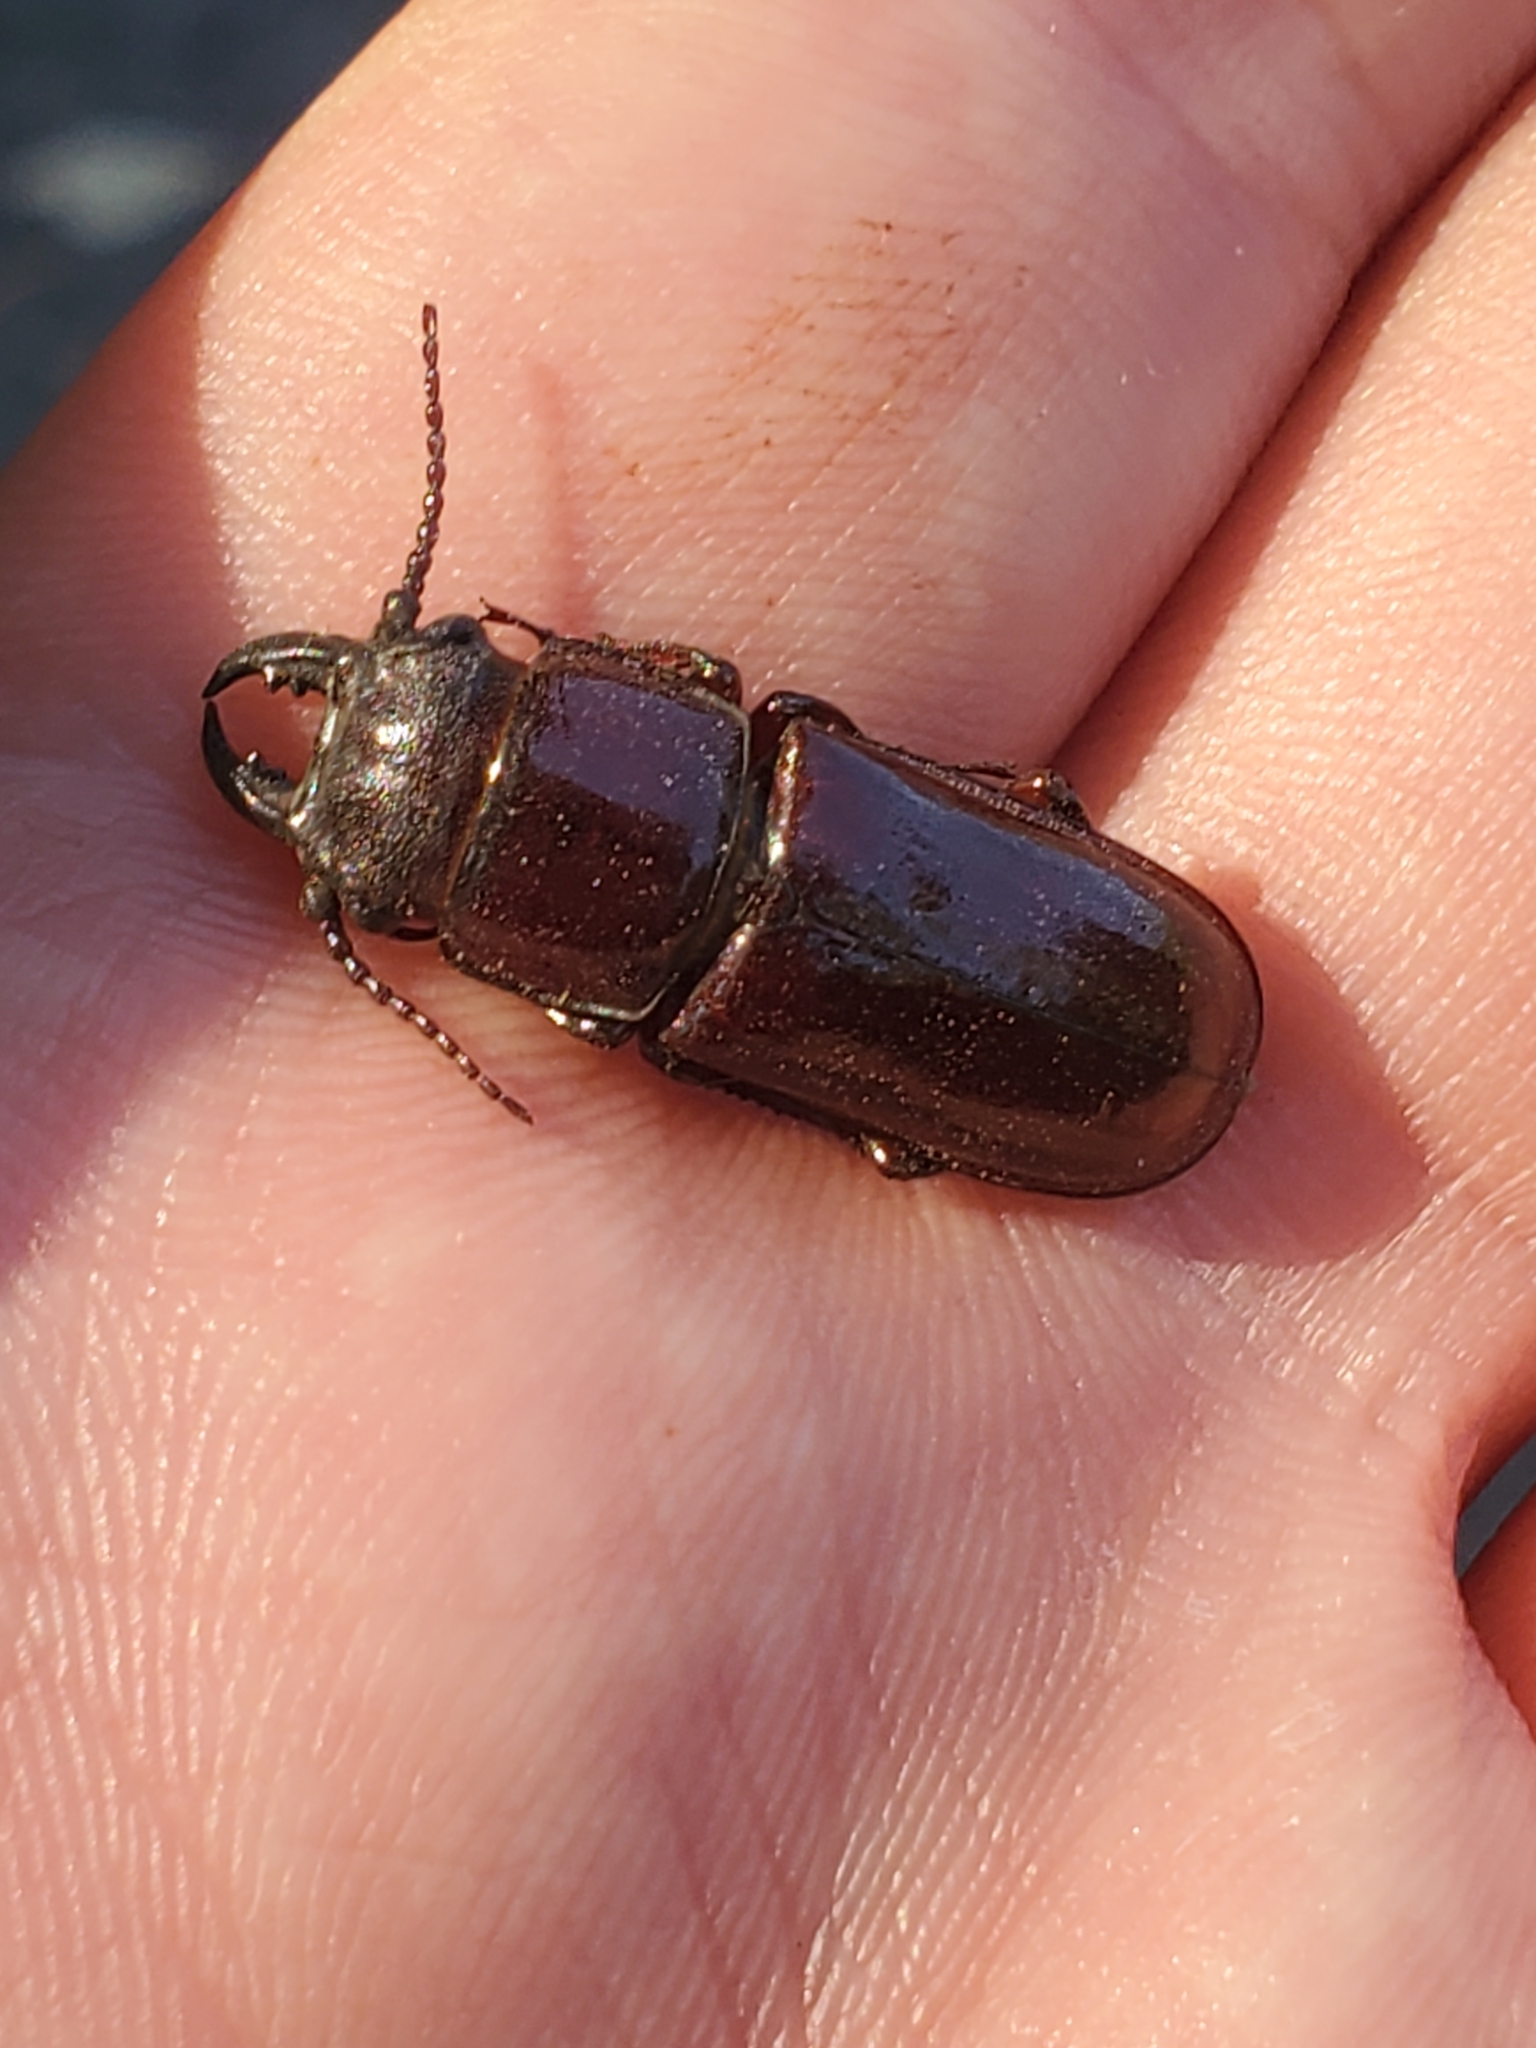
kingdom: Animalia
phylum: Arthropoda
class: Insecta
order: Coleoptera
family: Cerambycidae
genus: Neandra
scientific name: Neandra brunnea
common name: Pole borer
